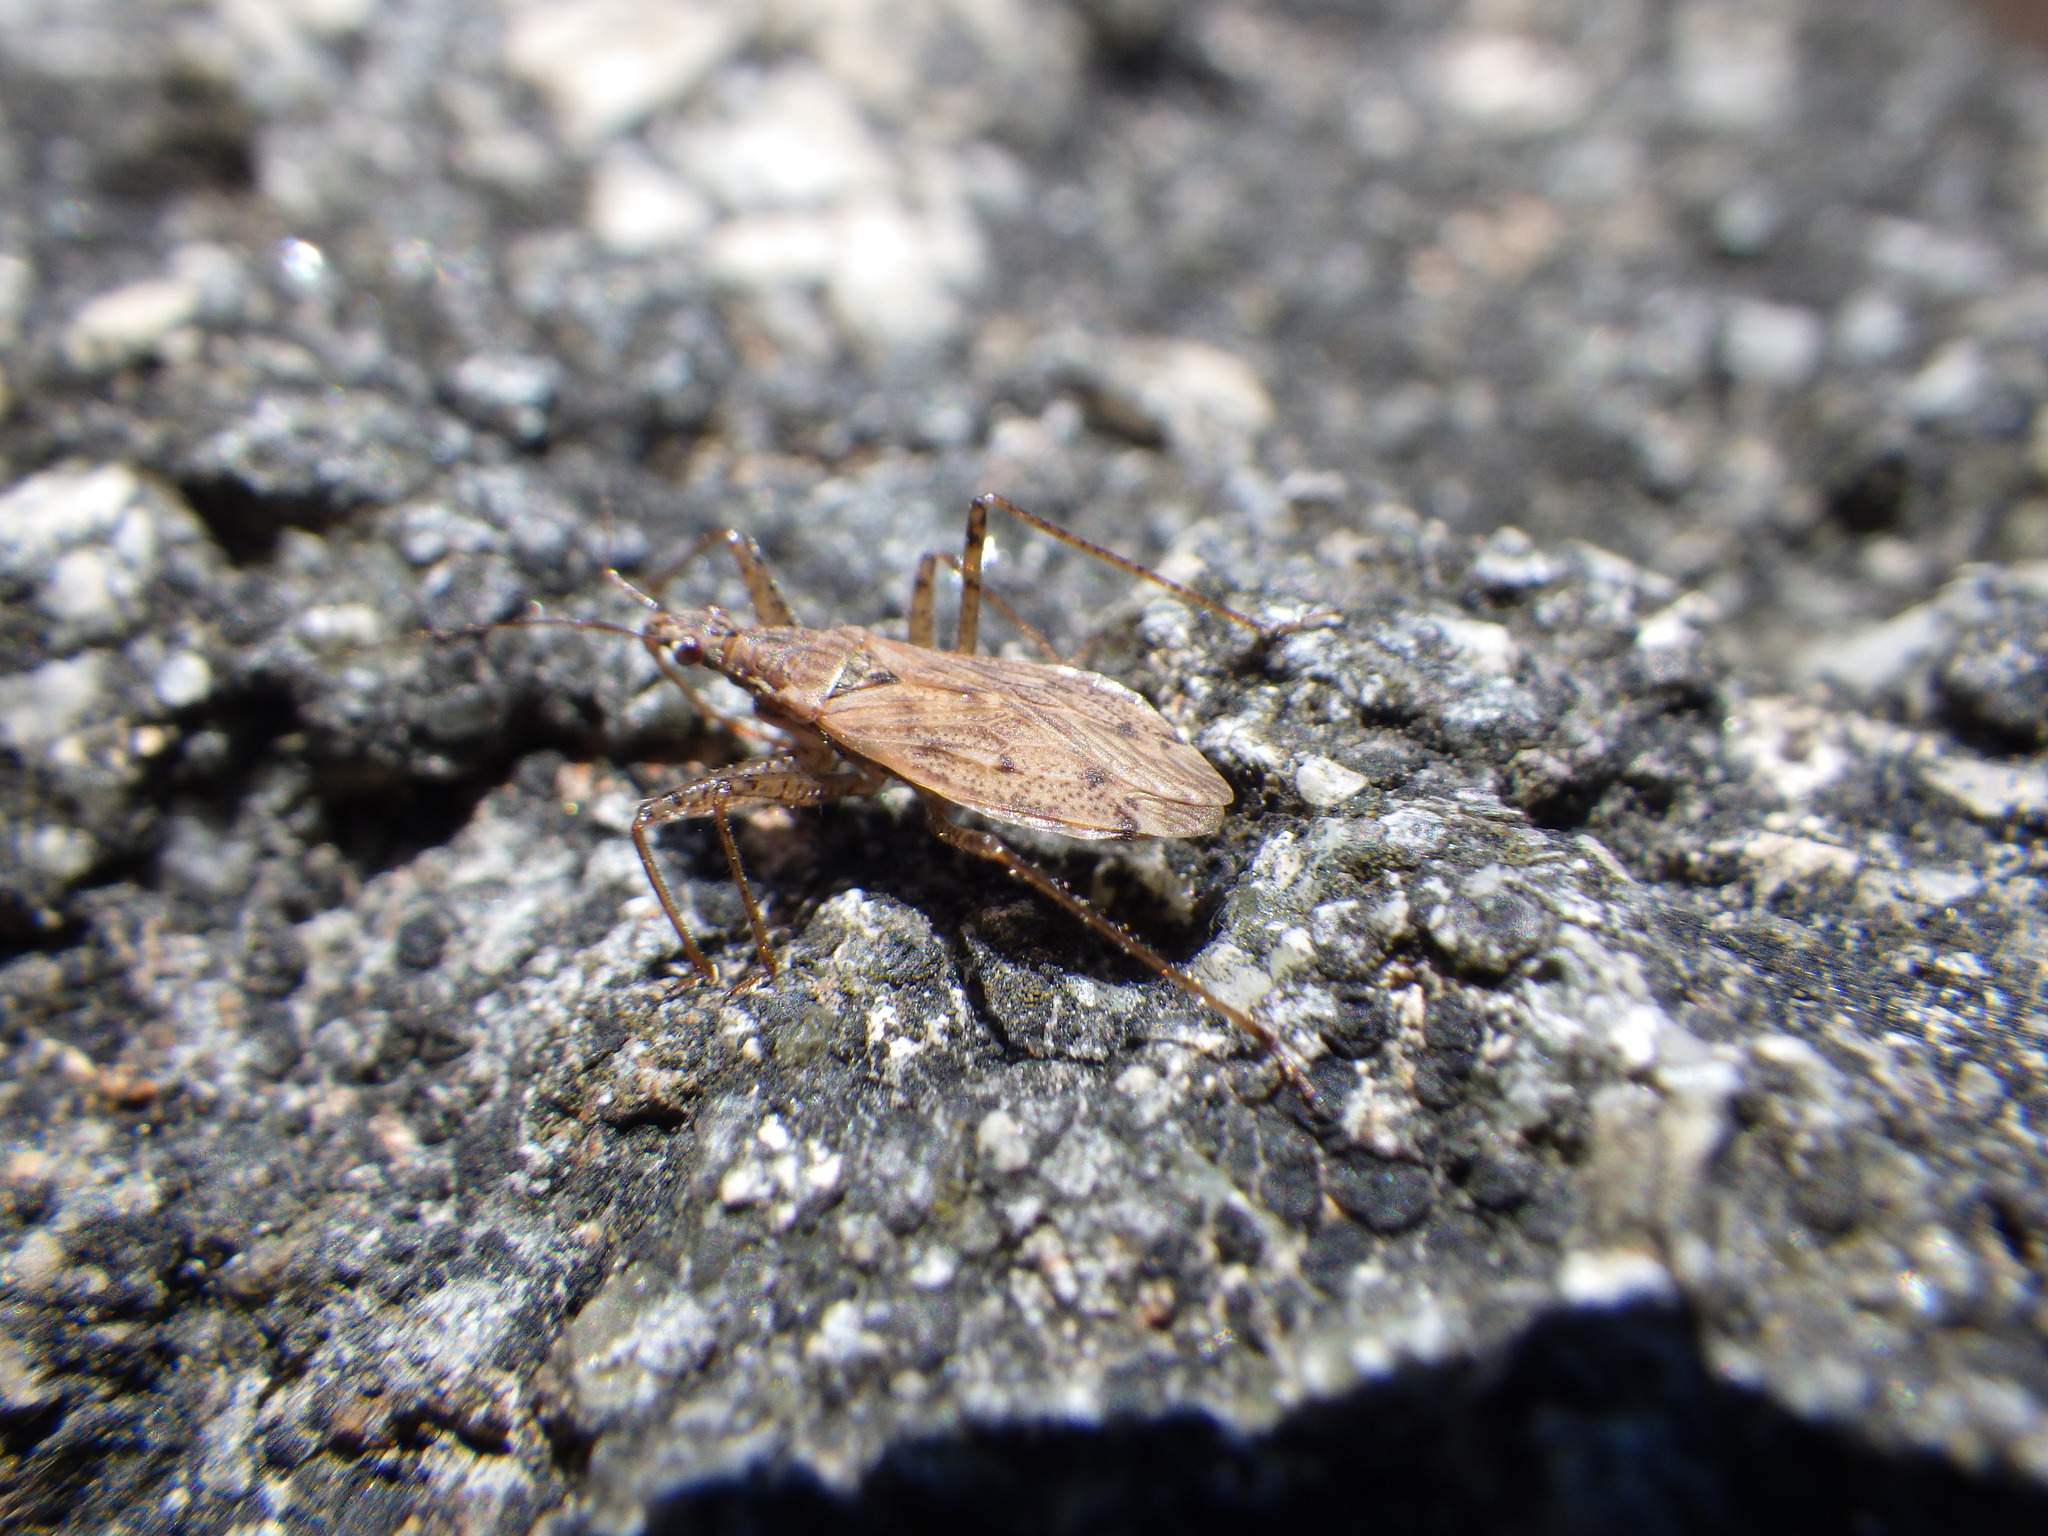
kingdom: Animalia
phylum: Arthropoda
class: Insecta
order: Hemiptera
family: Nabidae
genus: Nabis
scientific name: Nabis roseipennis
